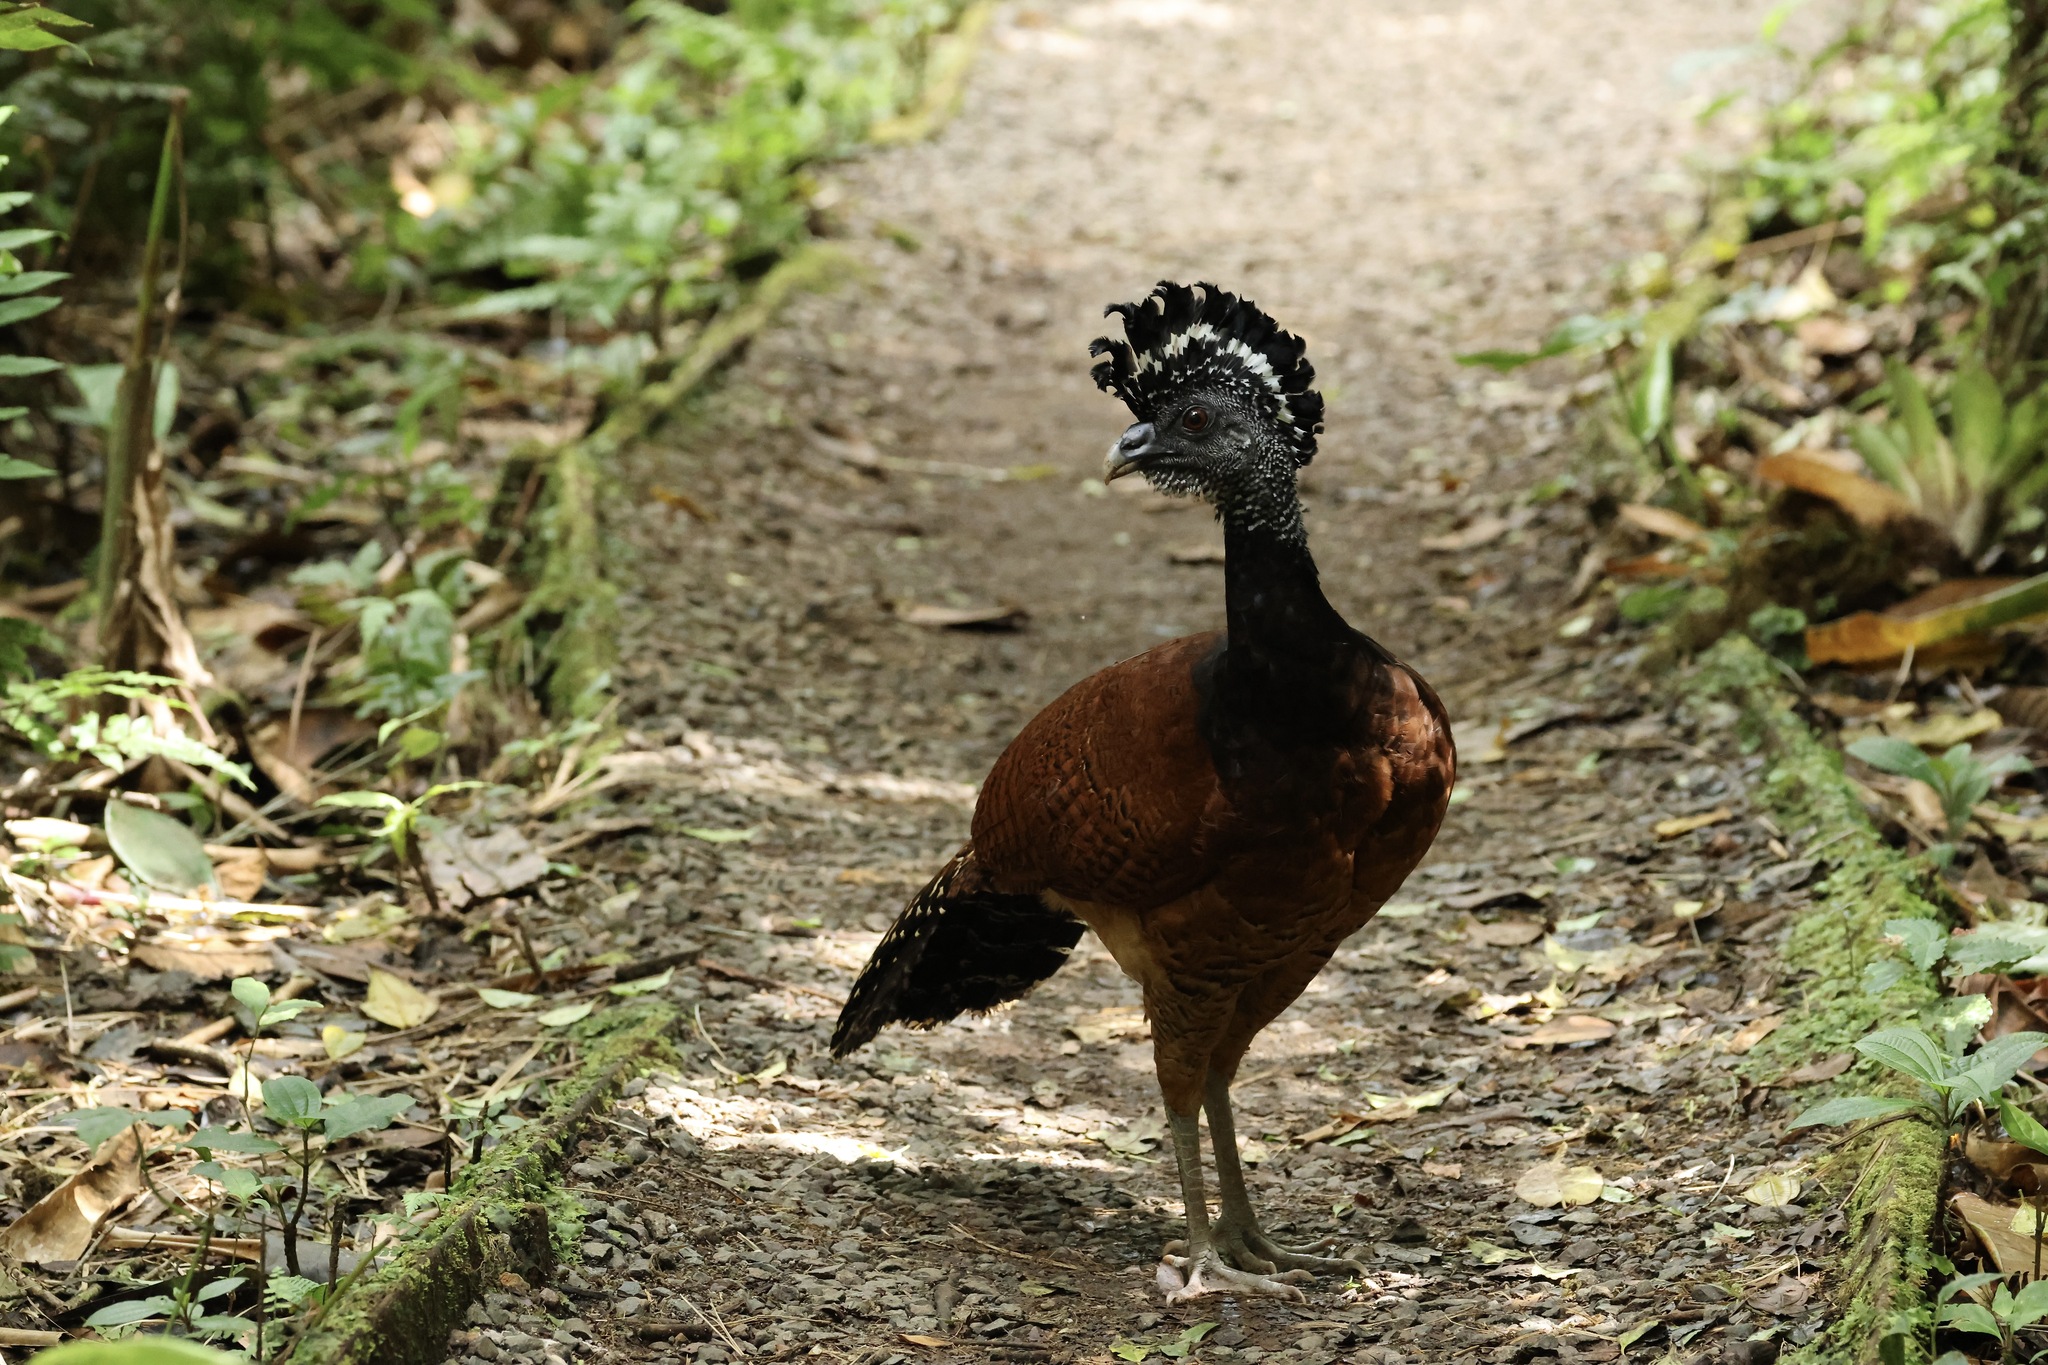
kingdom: Animalia
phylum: Chordata
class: Aves
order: Galliformes
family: Cracidae
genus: Crax
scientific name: Crax rubra
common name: Great curassow
